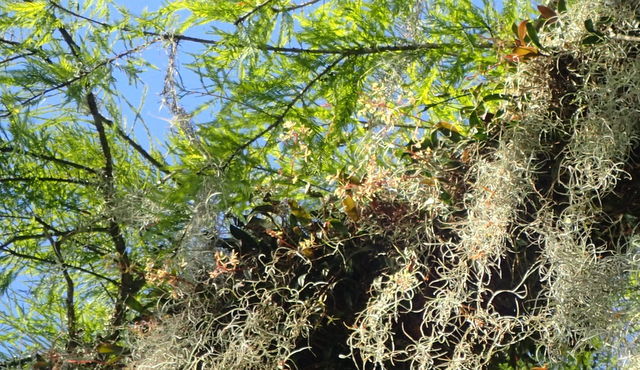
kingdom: Plantae
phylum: Tracheophyta
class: Liliopsida
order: Asparagales
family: Orchidaceae
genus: Epidendrum
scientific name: Epidendrum conopseum
